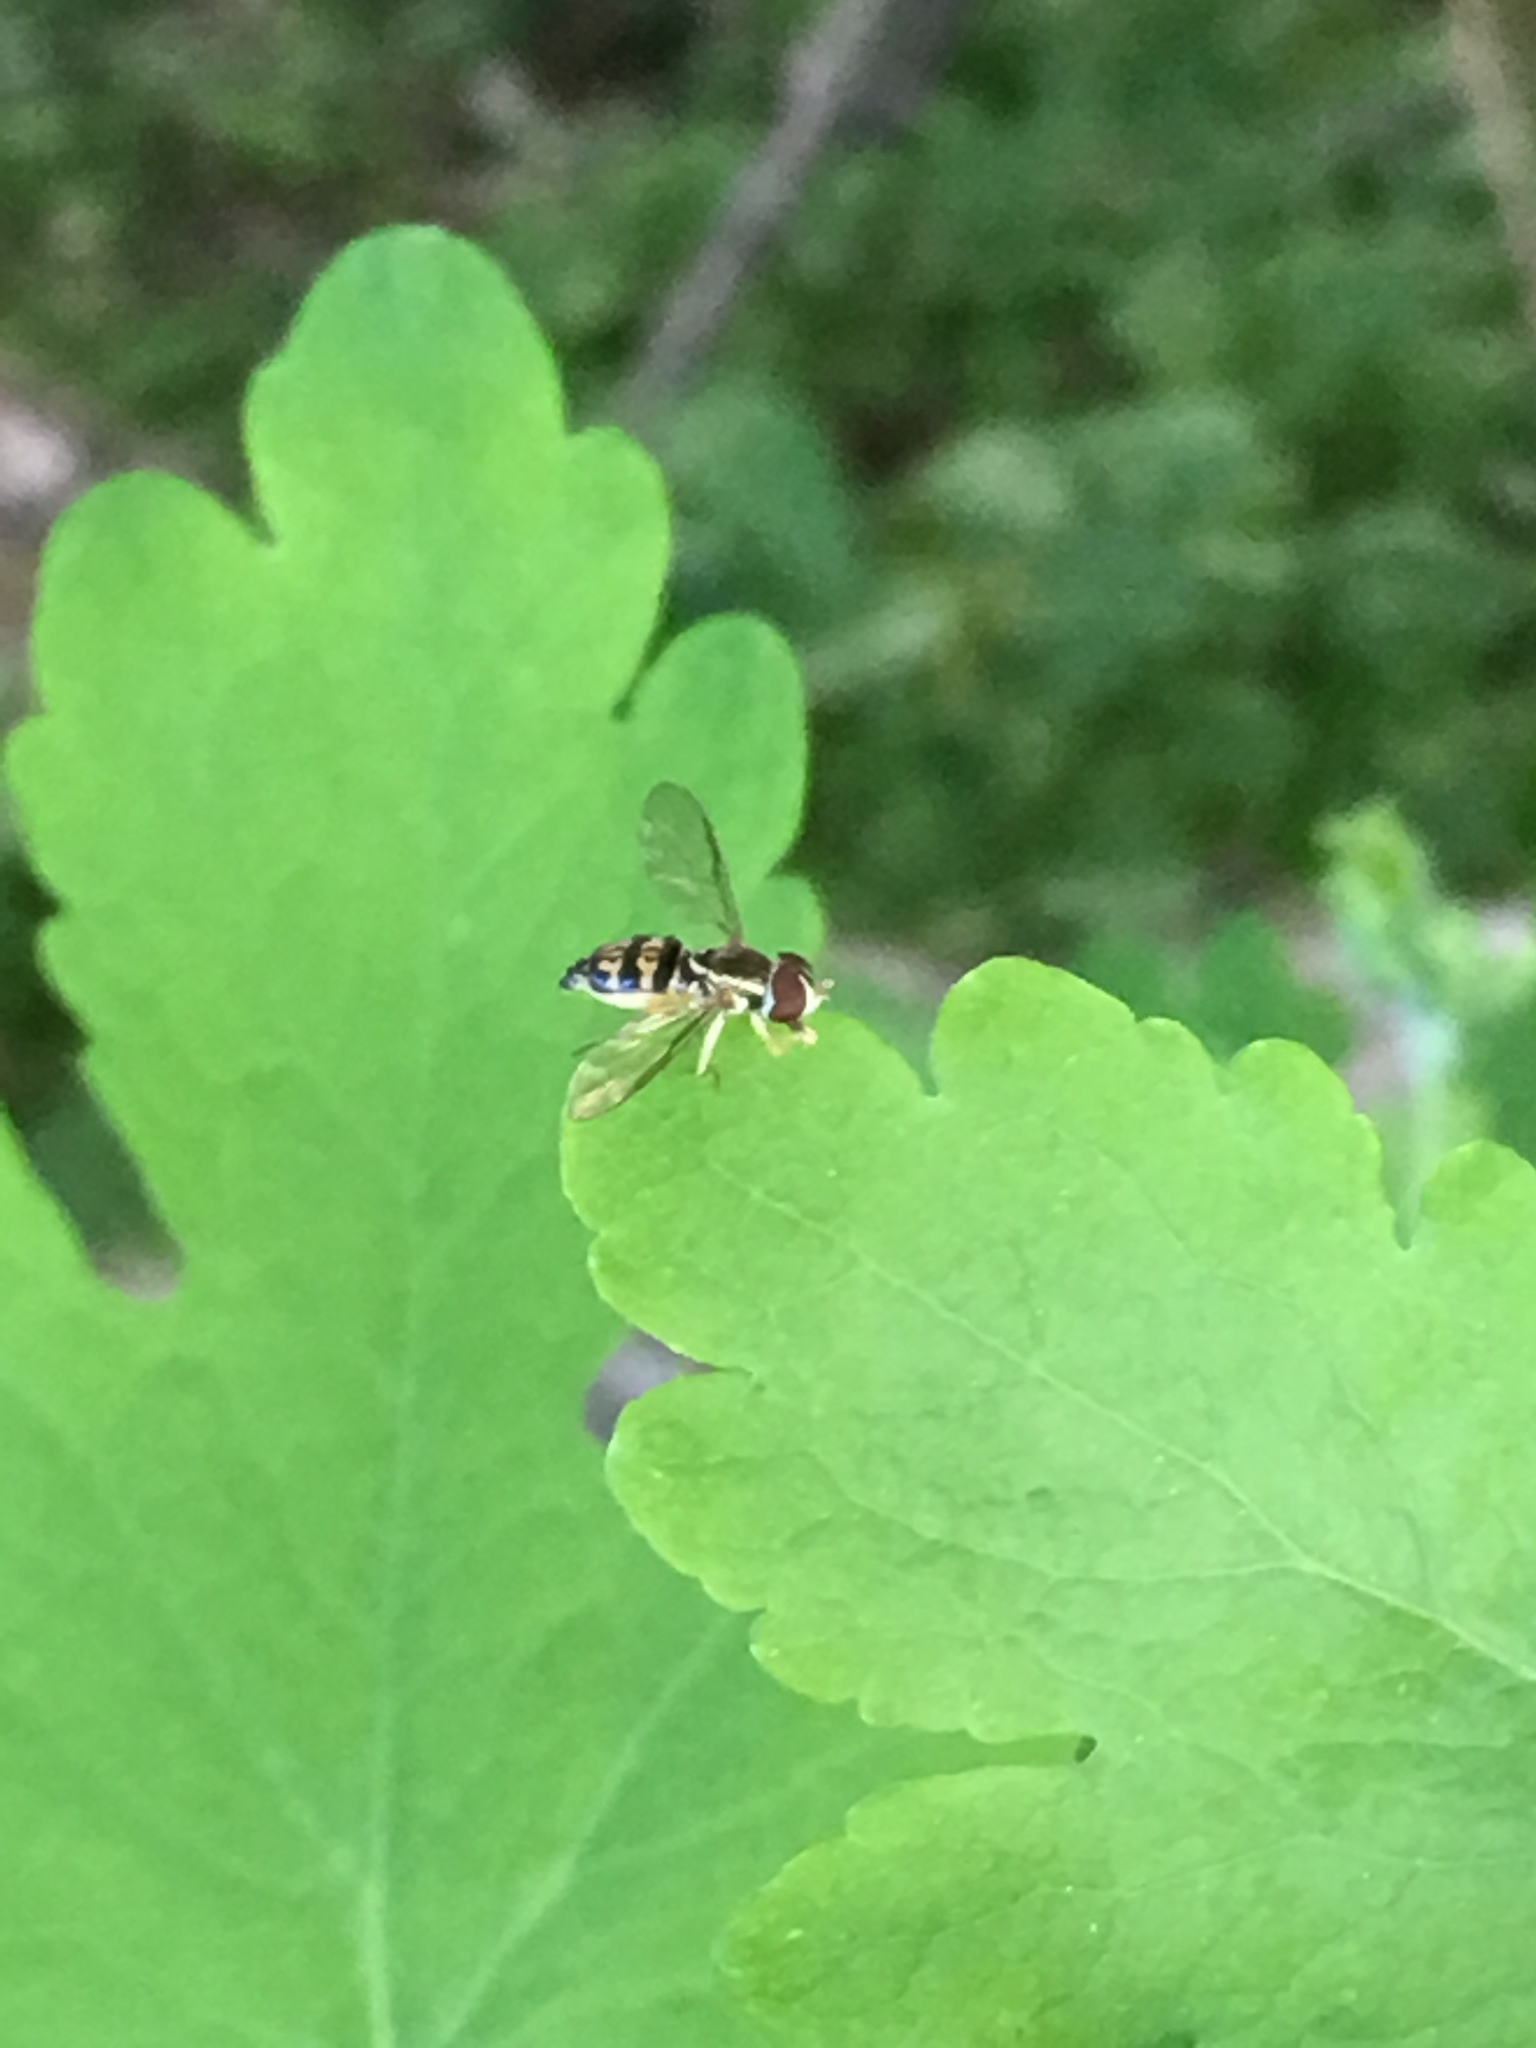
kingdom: Animalia
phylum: Arthropoda
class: Insecta
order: Diptera
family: Syrphidae
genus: Toxomerus
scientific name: Toxomerus geminatus
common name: Eastern calligrapher
